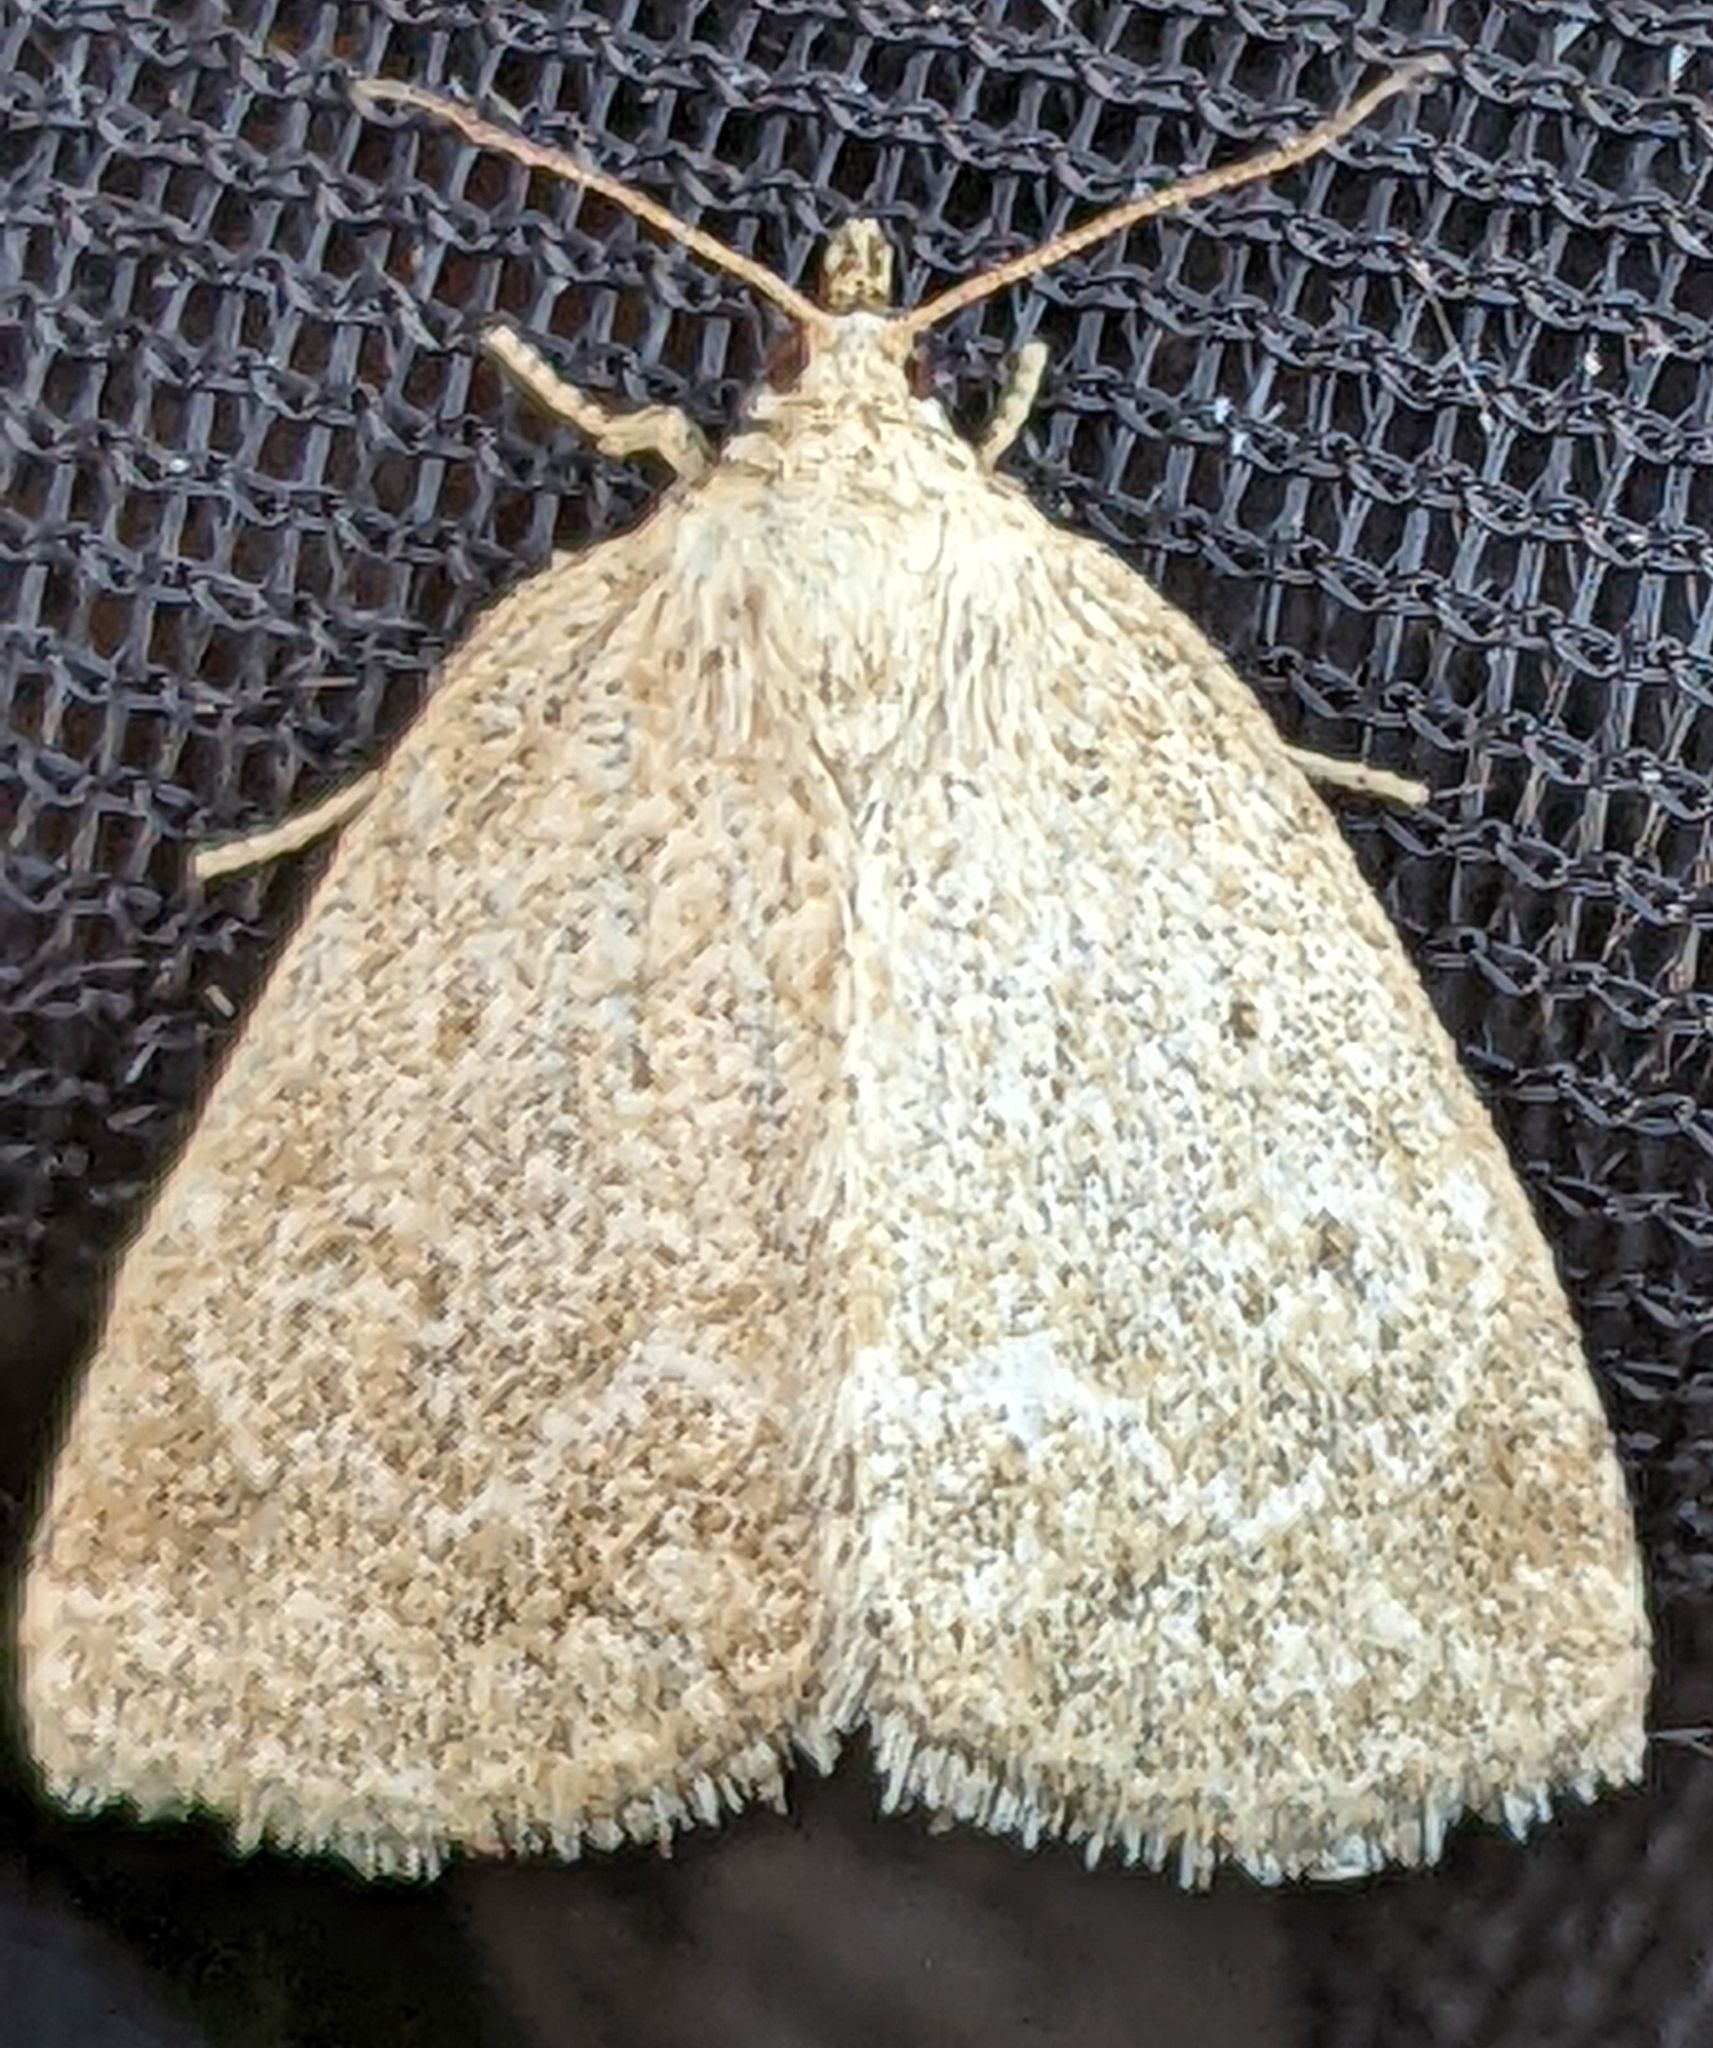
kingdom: Animalia
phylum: Arthropoda
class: Insecta
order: Lepidoptera
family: Noctuidae
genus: Protodeltote
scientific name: Protodeltote albidula
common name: Pale glyph
